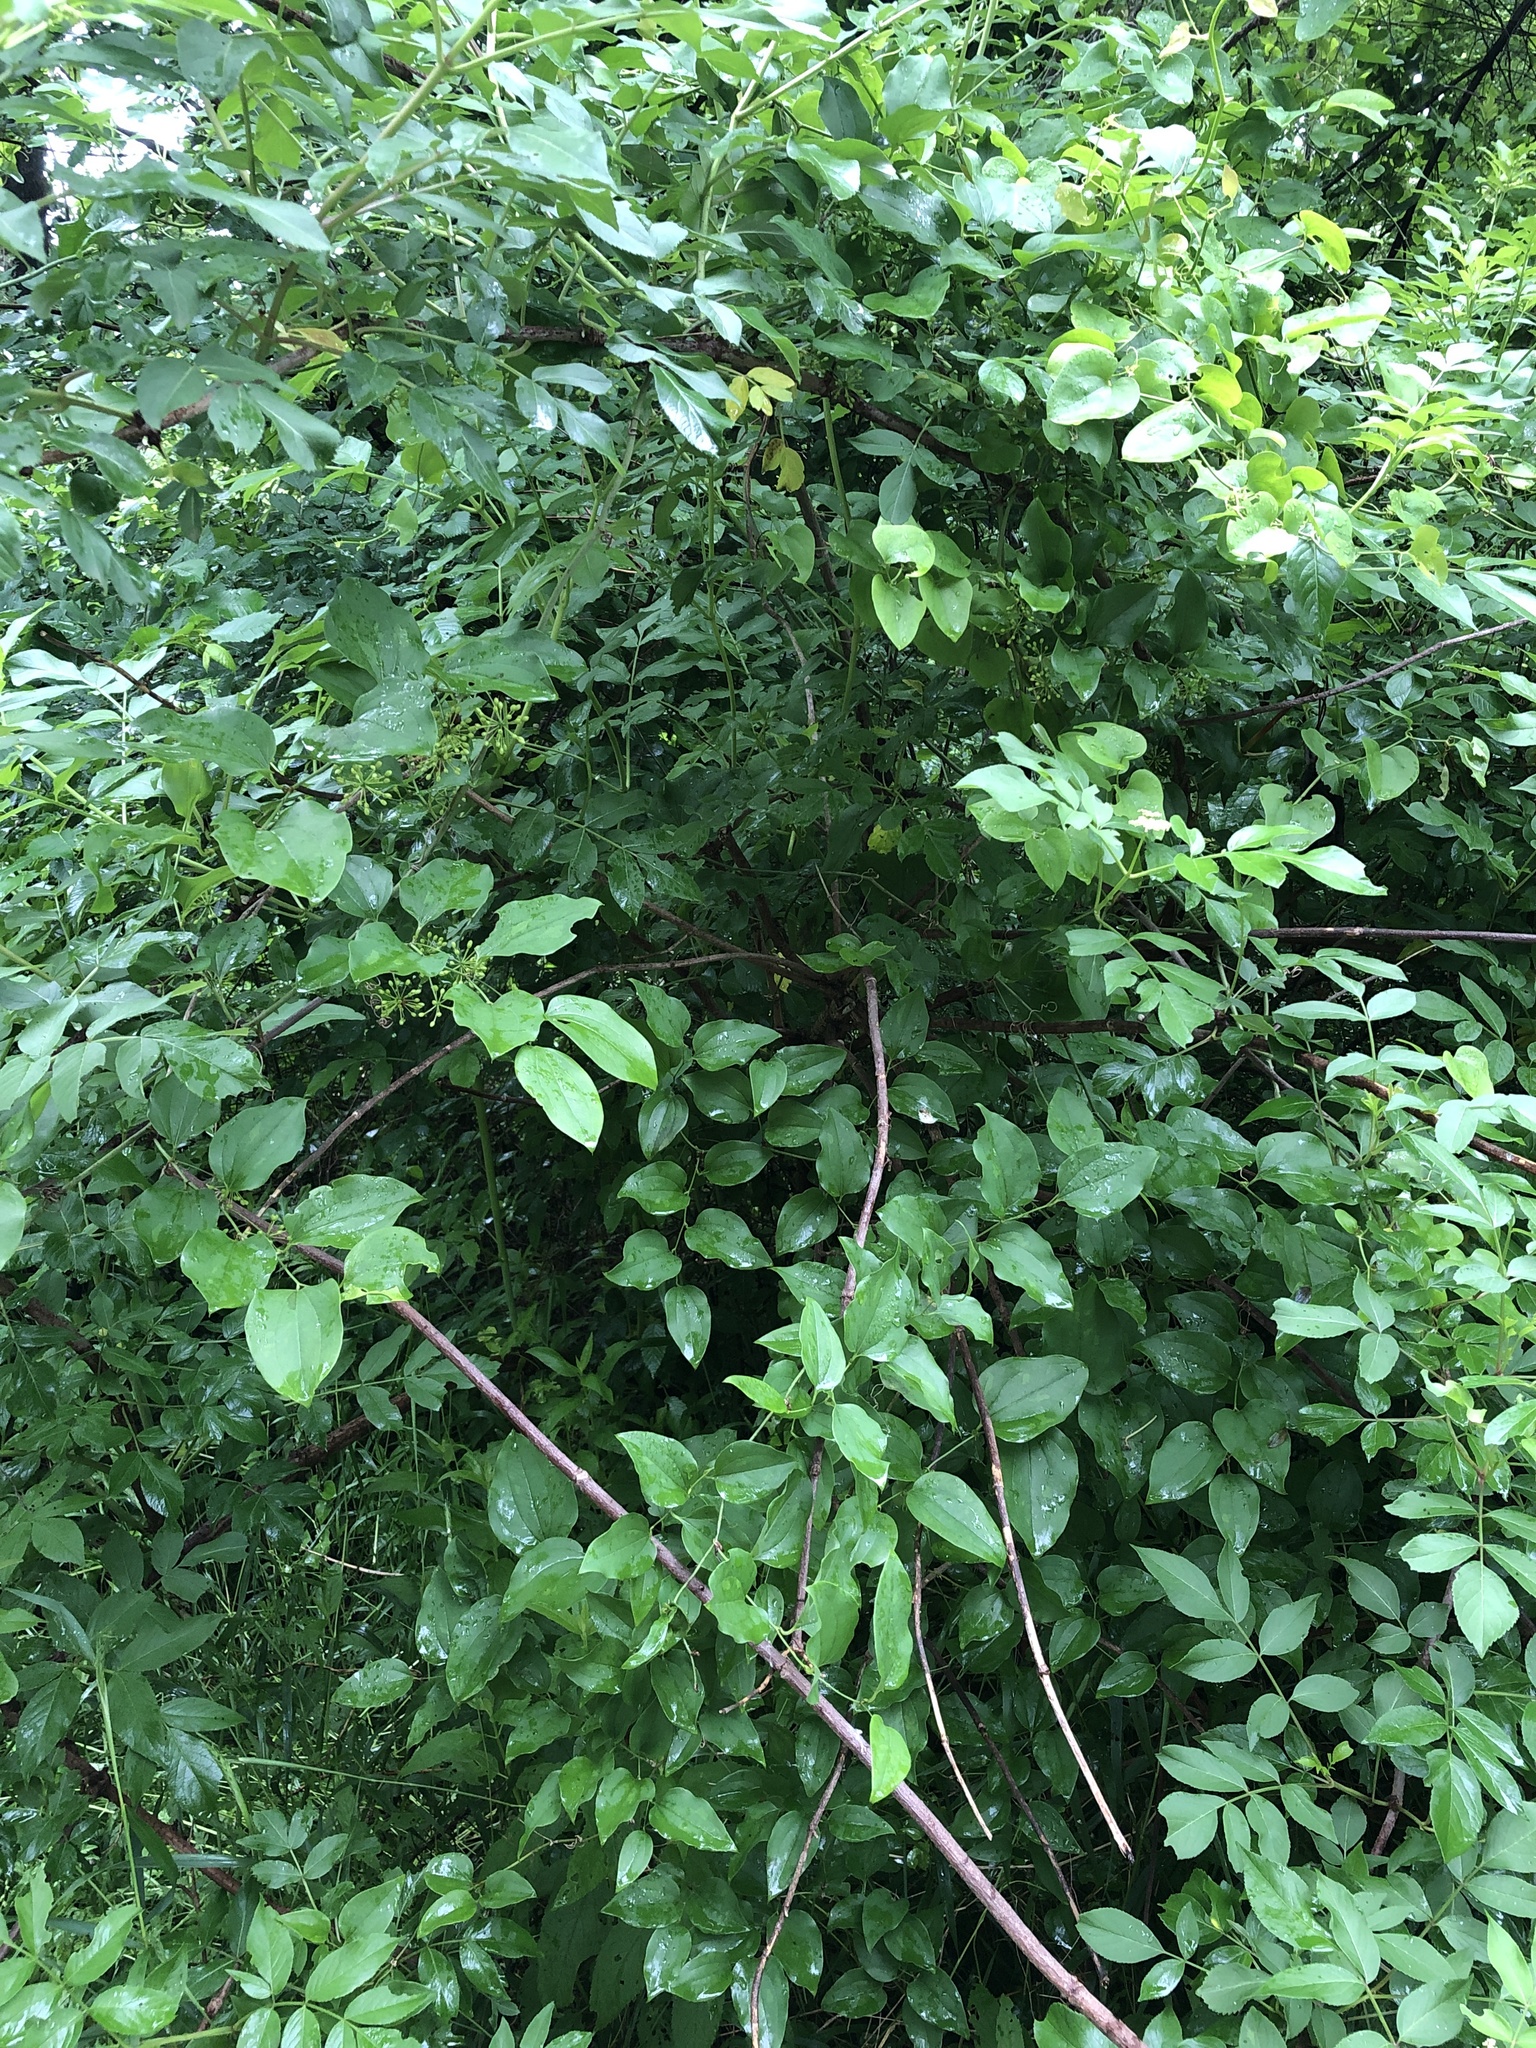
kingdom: Plantae
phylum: Tracheophyta
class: Liliopsida
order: Liliales
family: Smilacaceae
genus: Smilax
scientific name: Smilax tamnoides
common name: Hellfetter
